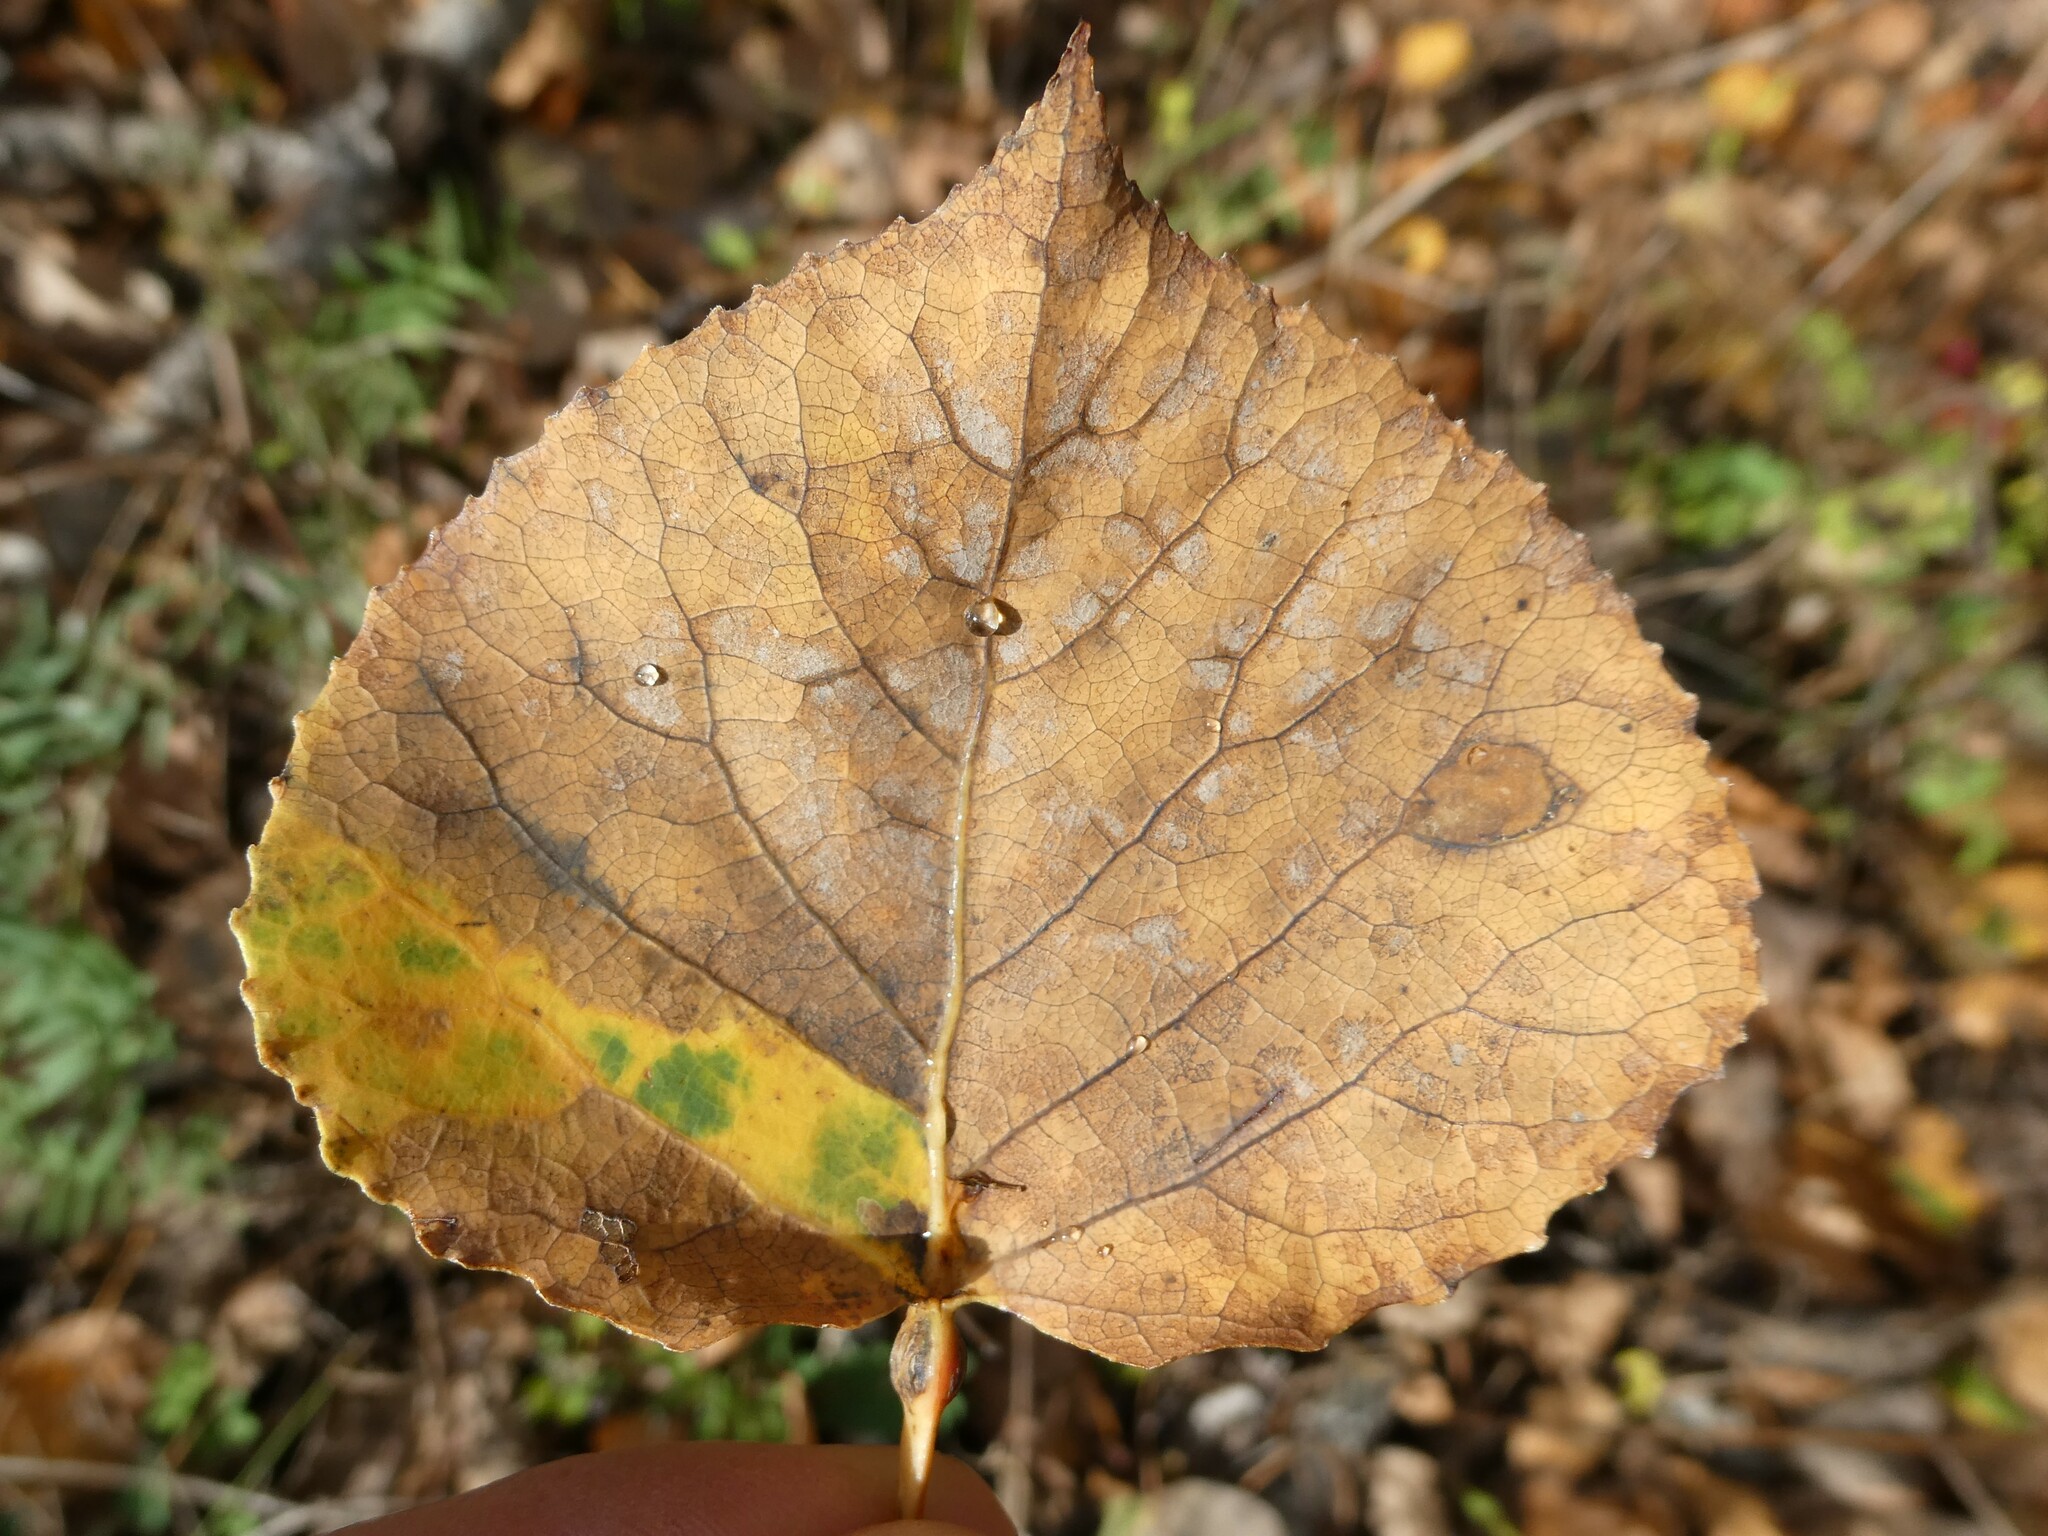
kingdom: Plantae
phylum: Tracheophyta
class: Magnoliopsida
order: Malpighiales
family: Salicaceae
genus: Populus
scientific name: Populus tremuloides
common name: Quaking aspen
